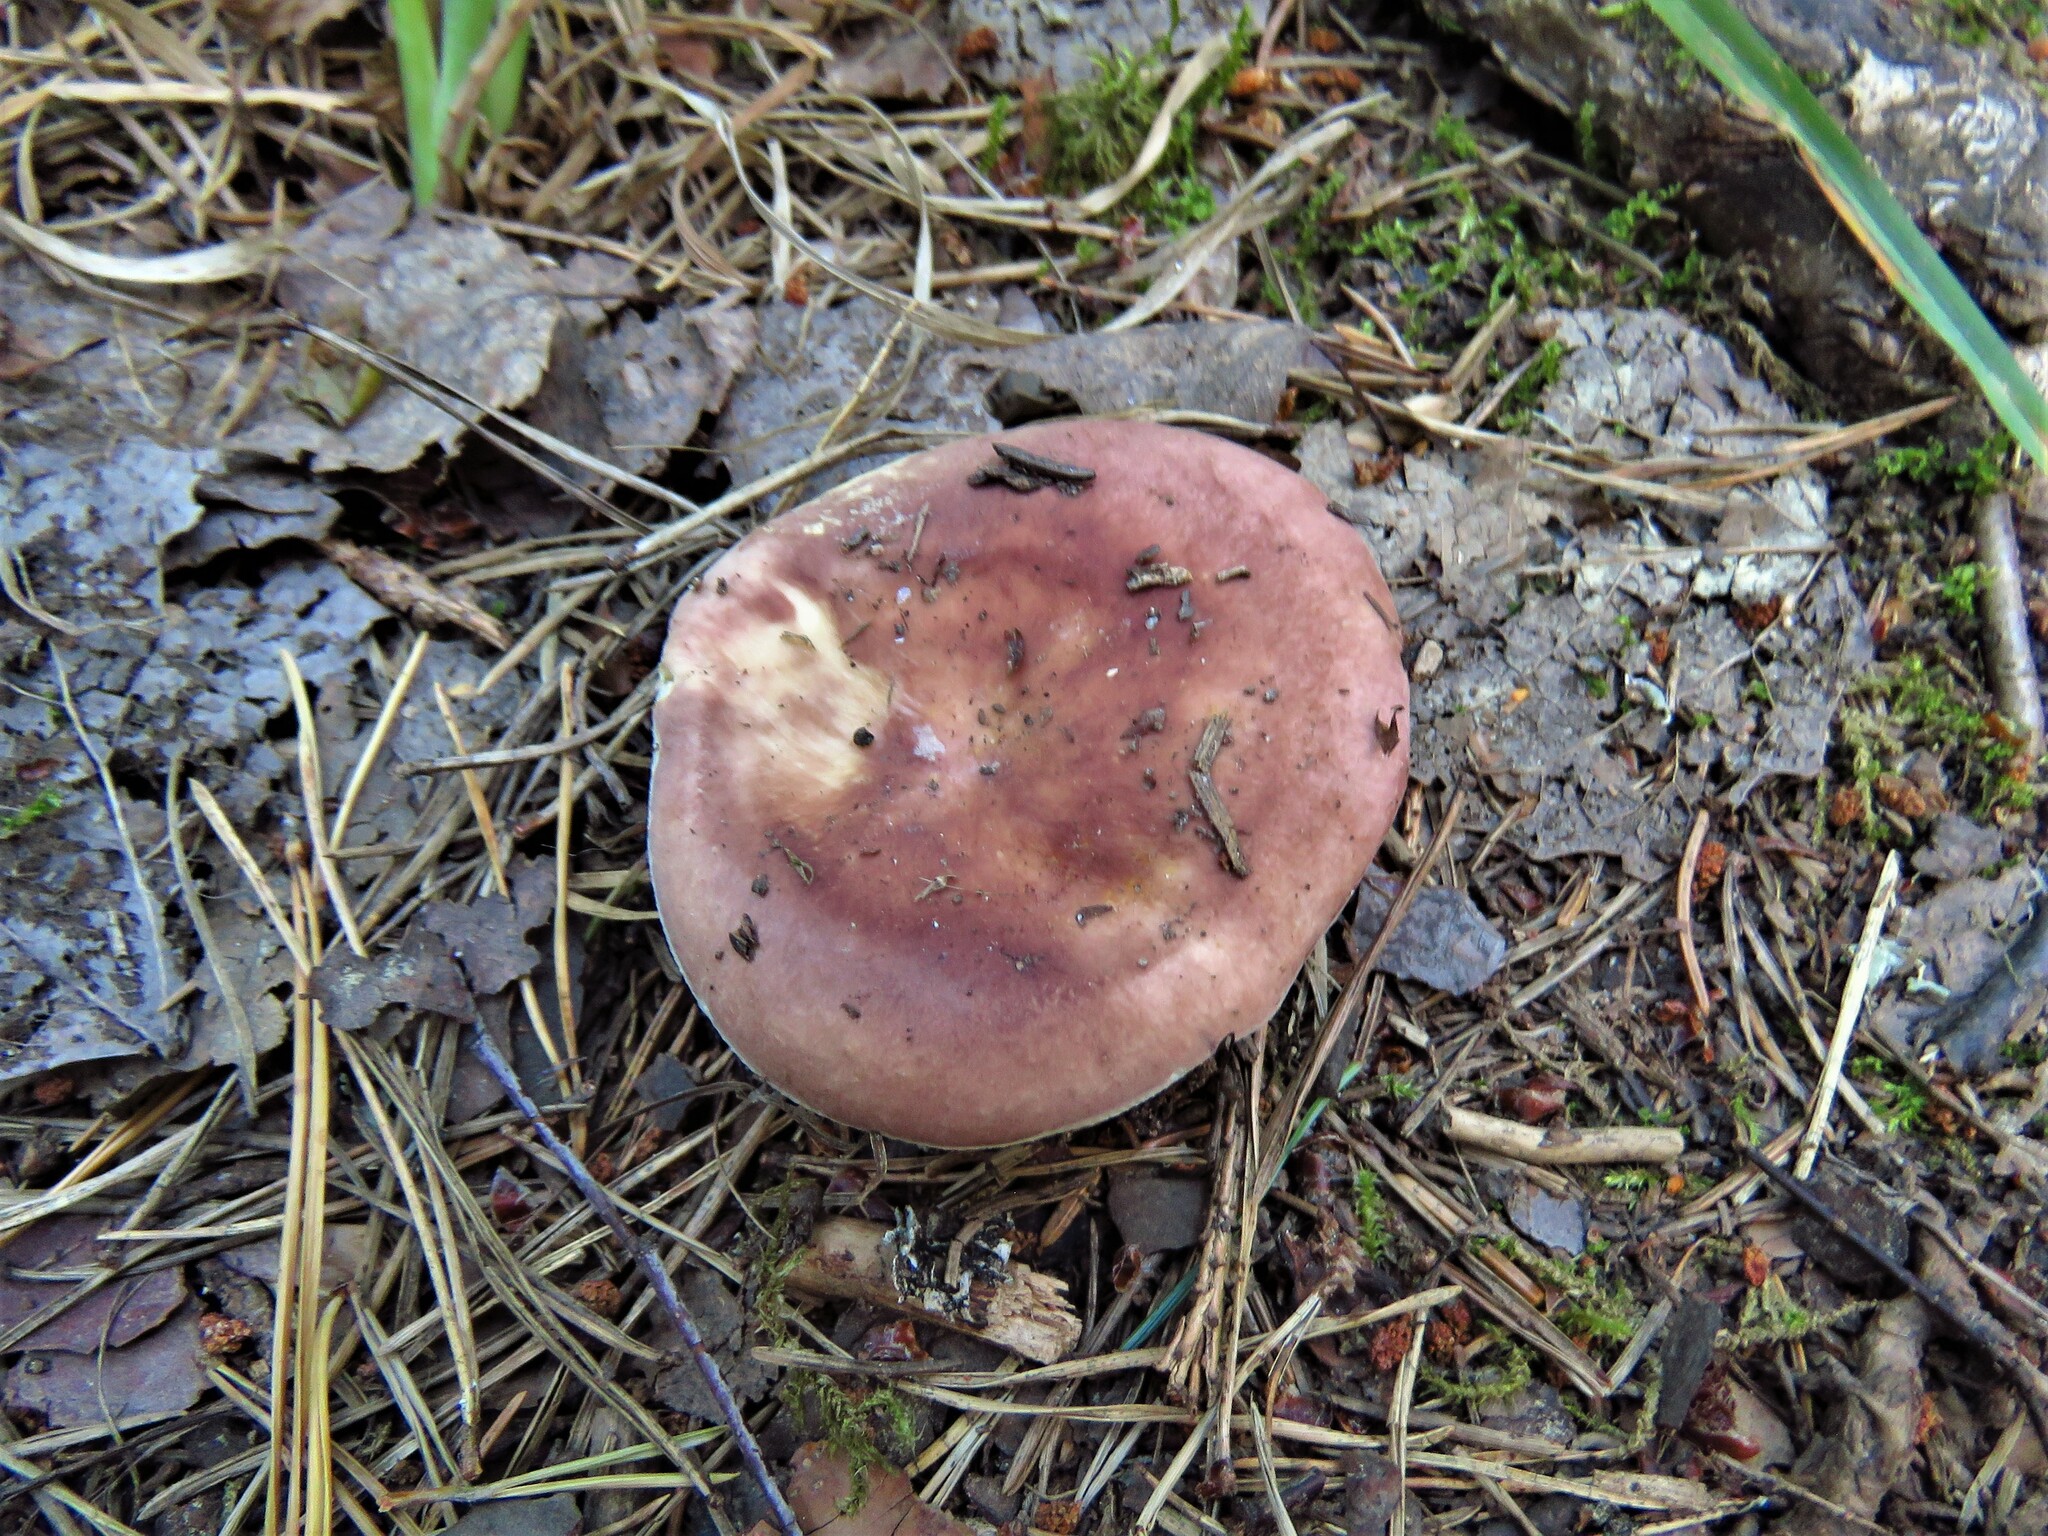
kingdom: Fungi
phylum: Basidiomycota
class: Agaricomycetes
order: Russulales
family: Russulaceae
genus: Russula
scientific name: Russula vesca
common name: Bare-toothed russula
